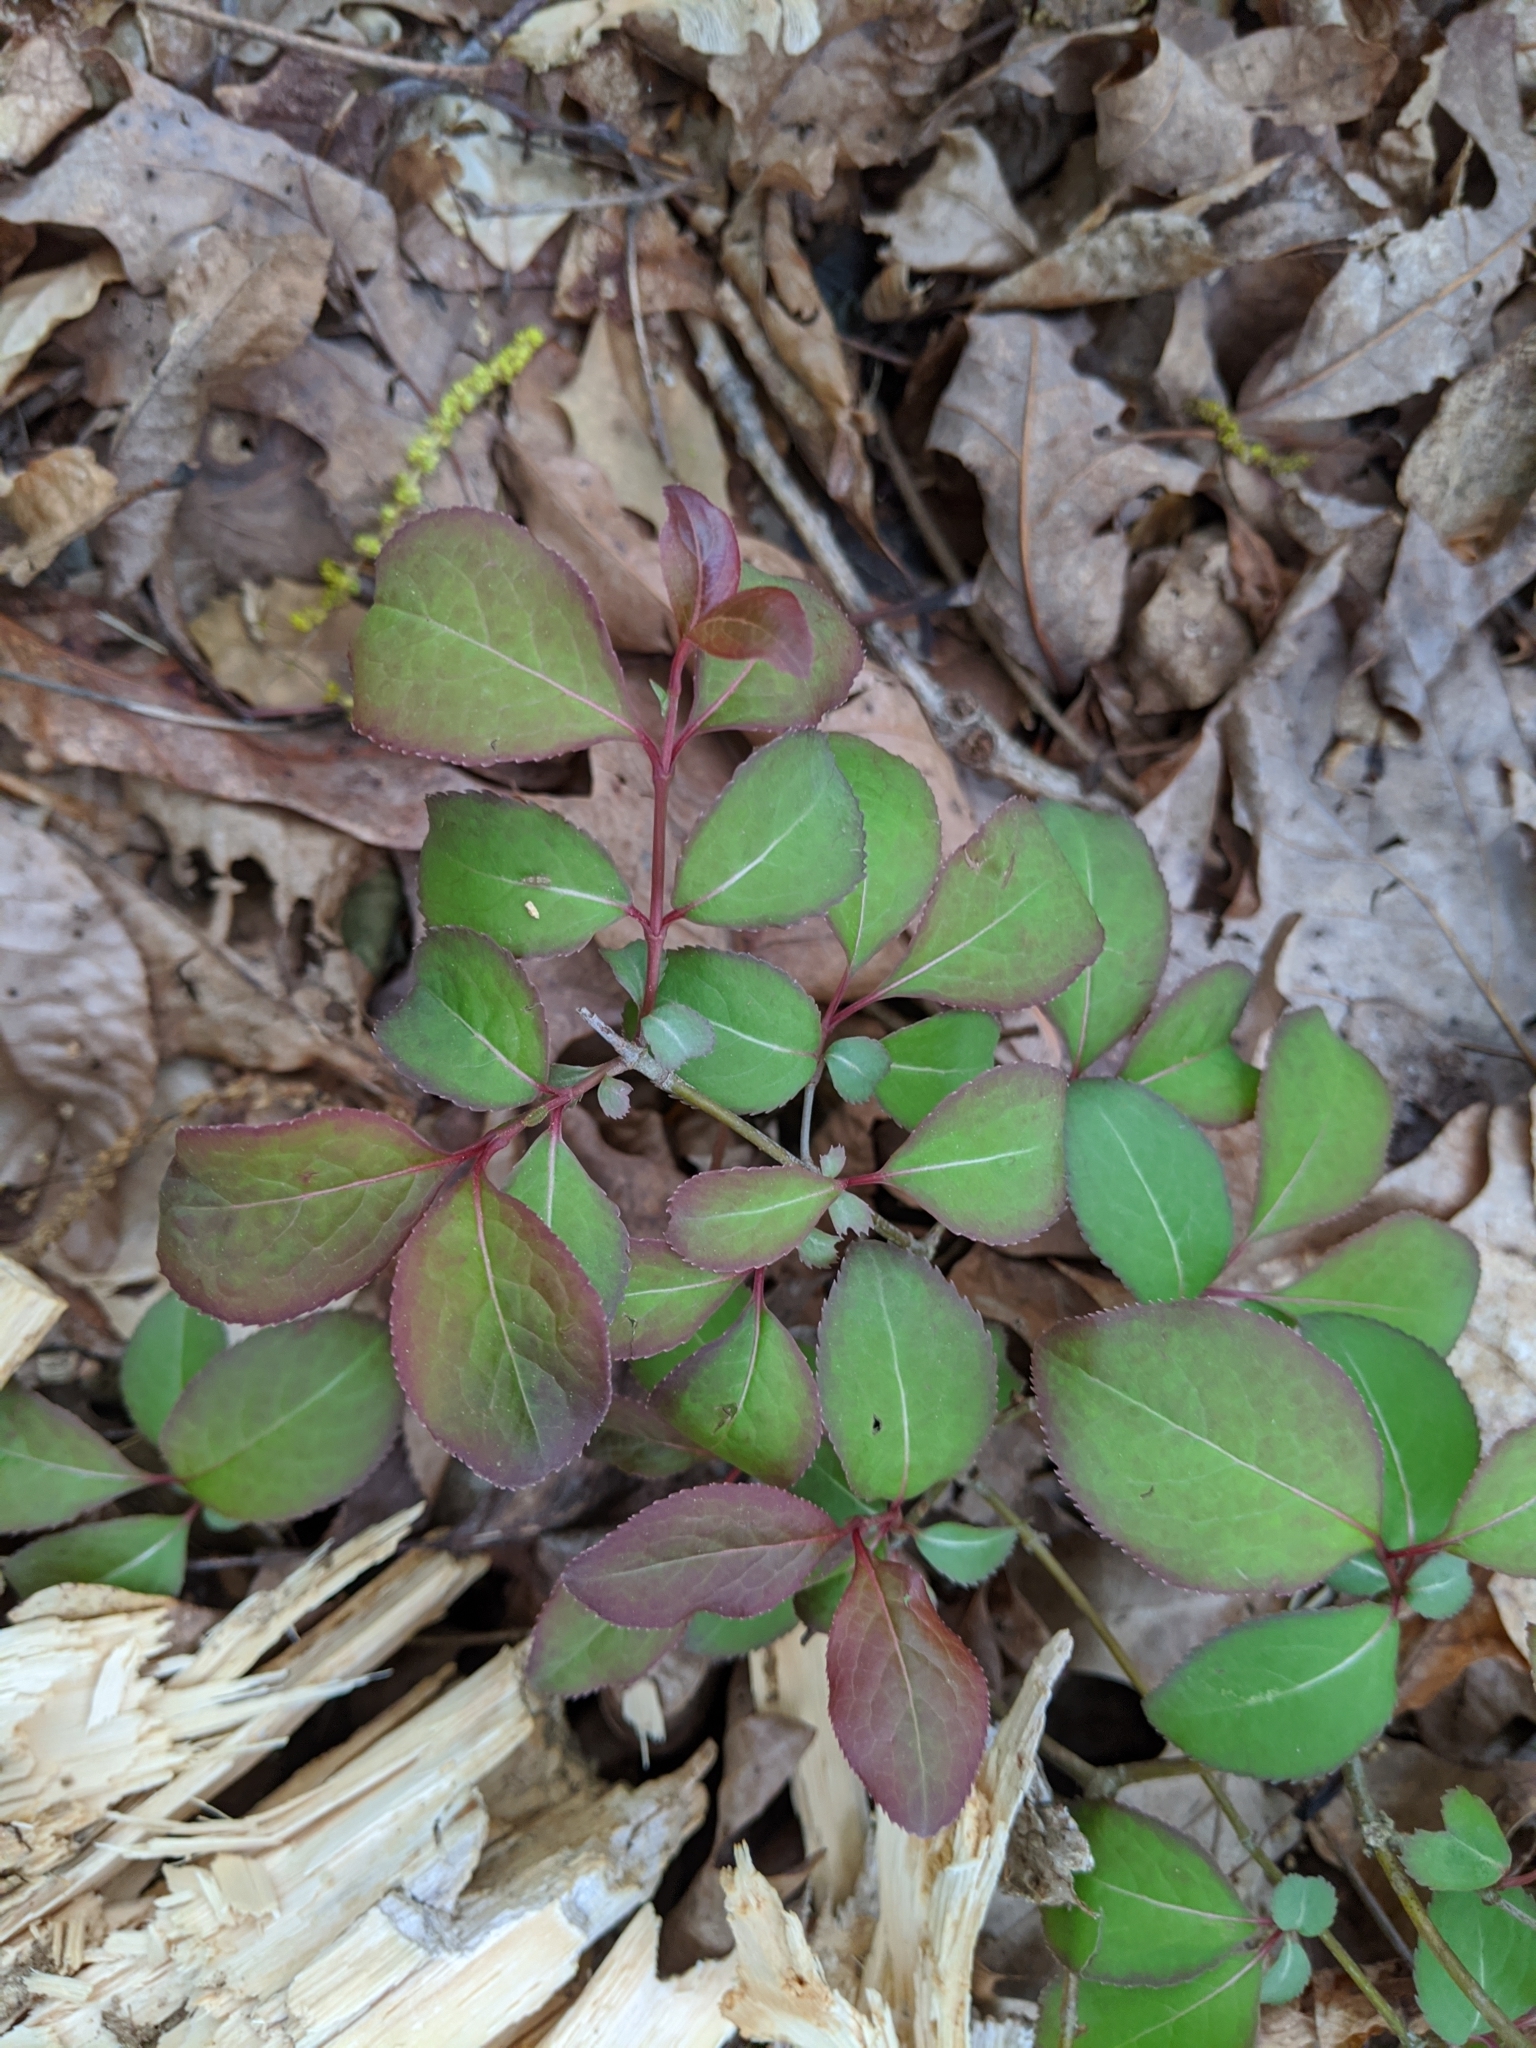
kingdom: Plantae
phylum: Tracheophyta
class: Magnoliopsida
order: Dipsacales
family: Viburnaceae
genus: Viburnum
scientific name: Viburnum prunifolium
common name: Black haw
